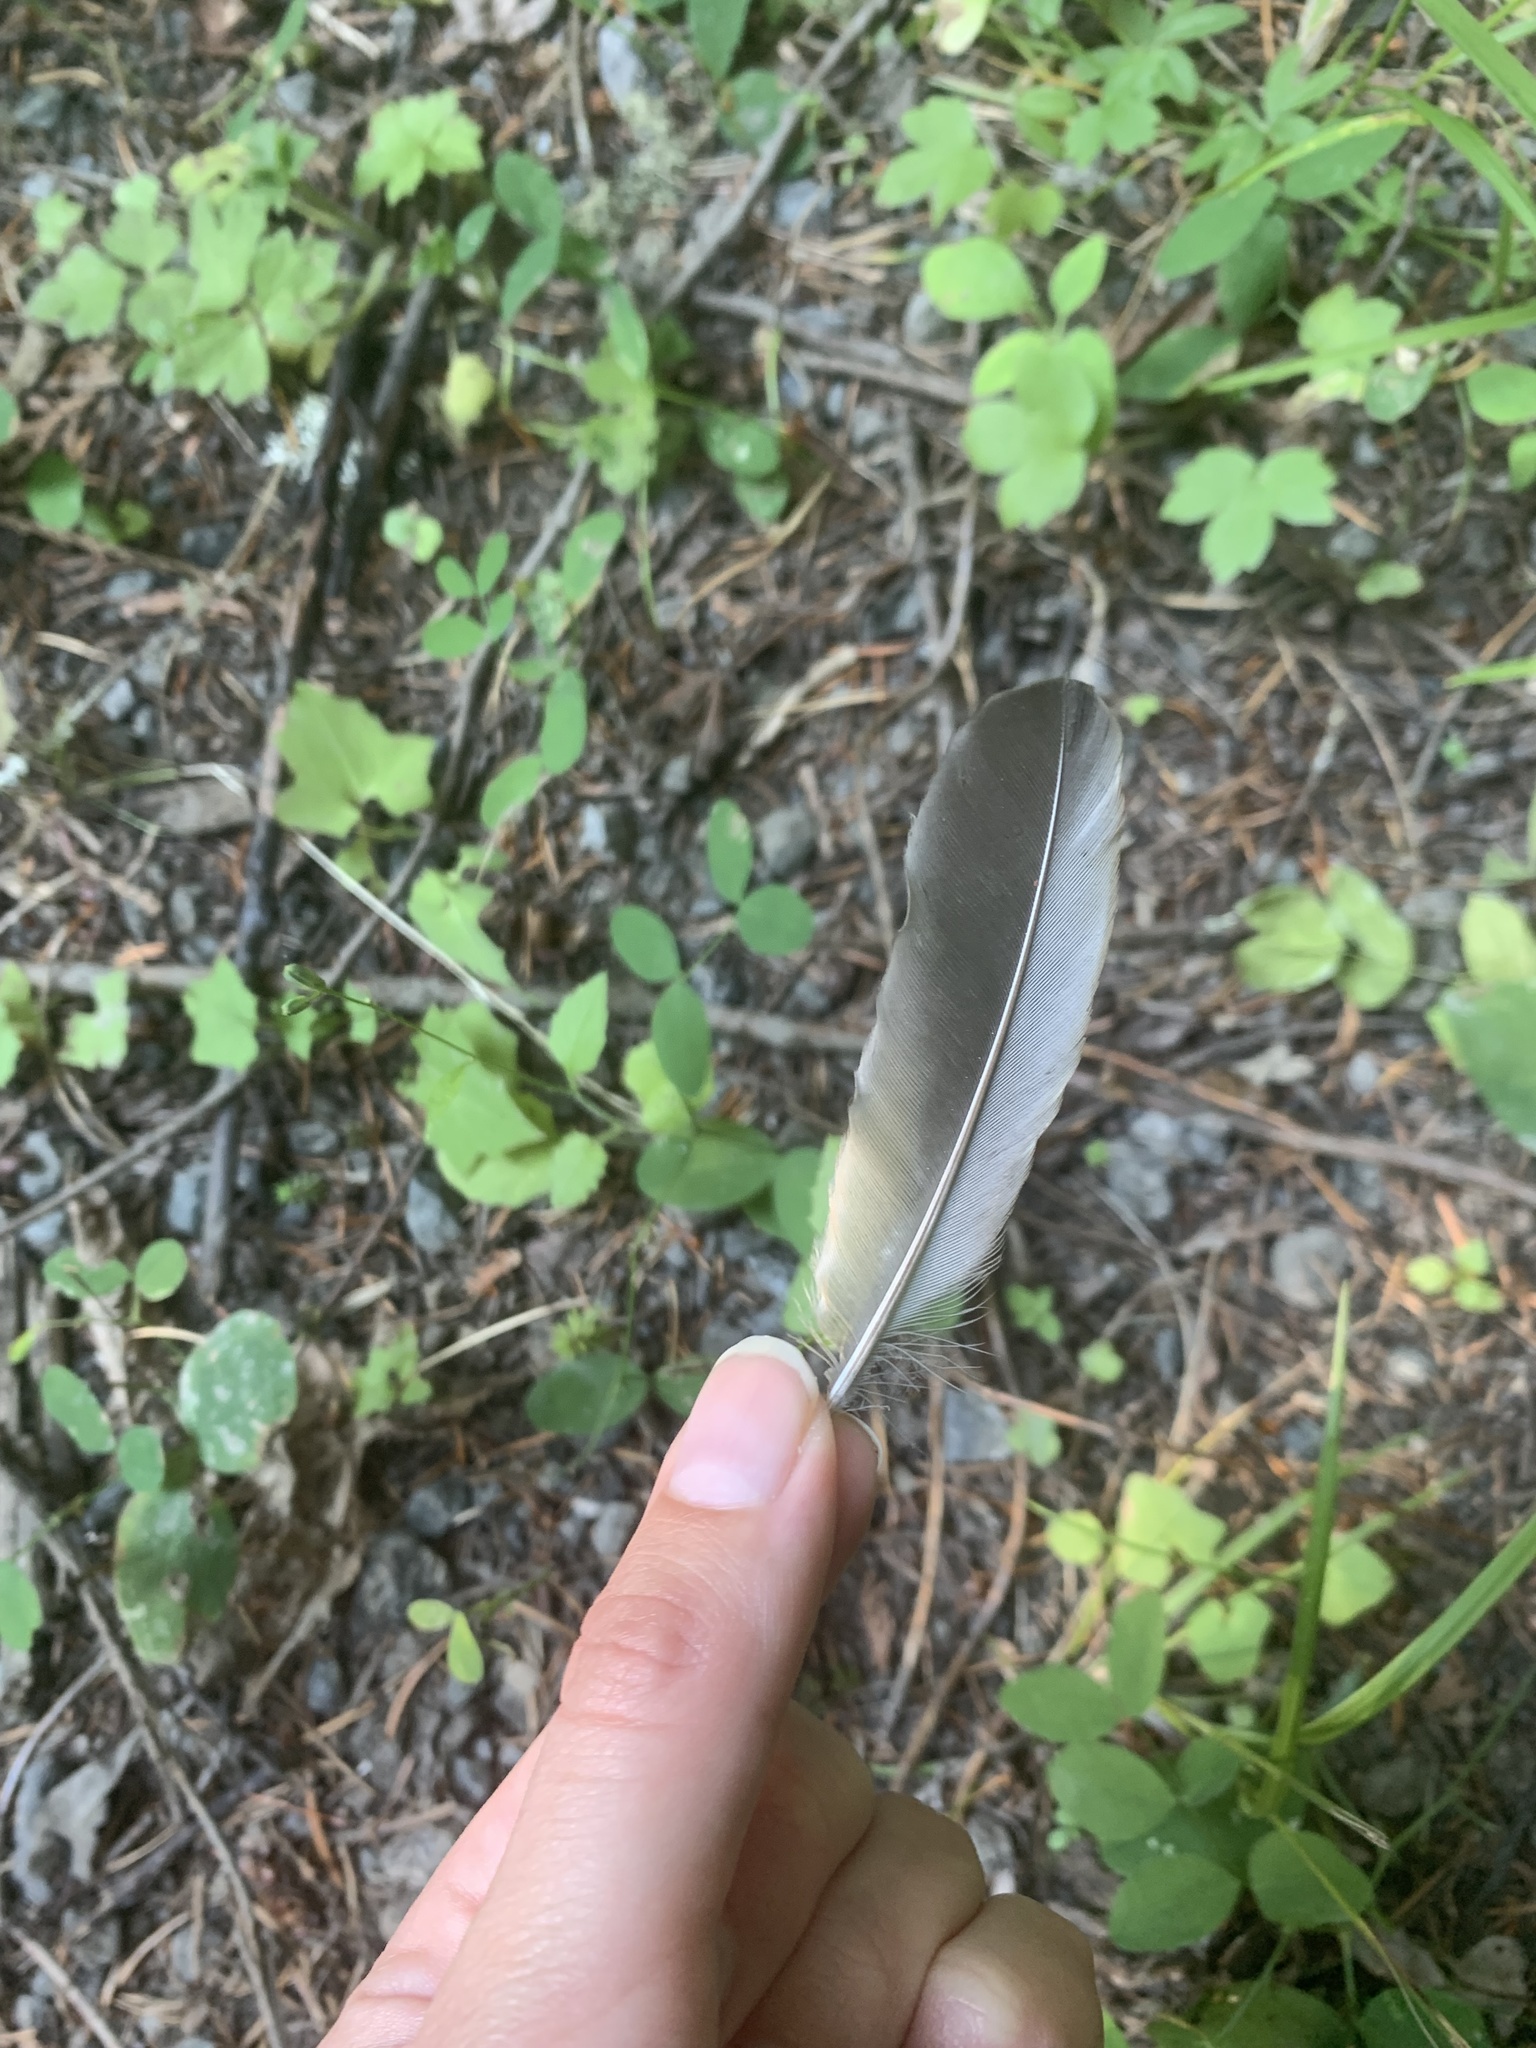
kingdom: Animalia
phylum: Chordata
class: Aves
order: Passeriformes
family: Turdidae
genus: Turdus
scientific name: Turdus migratorius
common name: American robin
